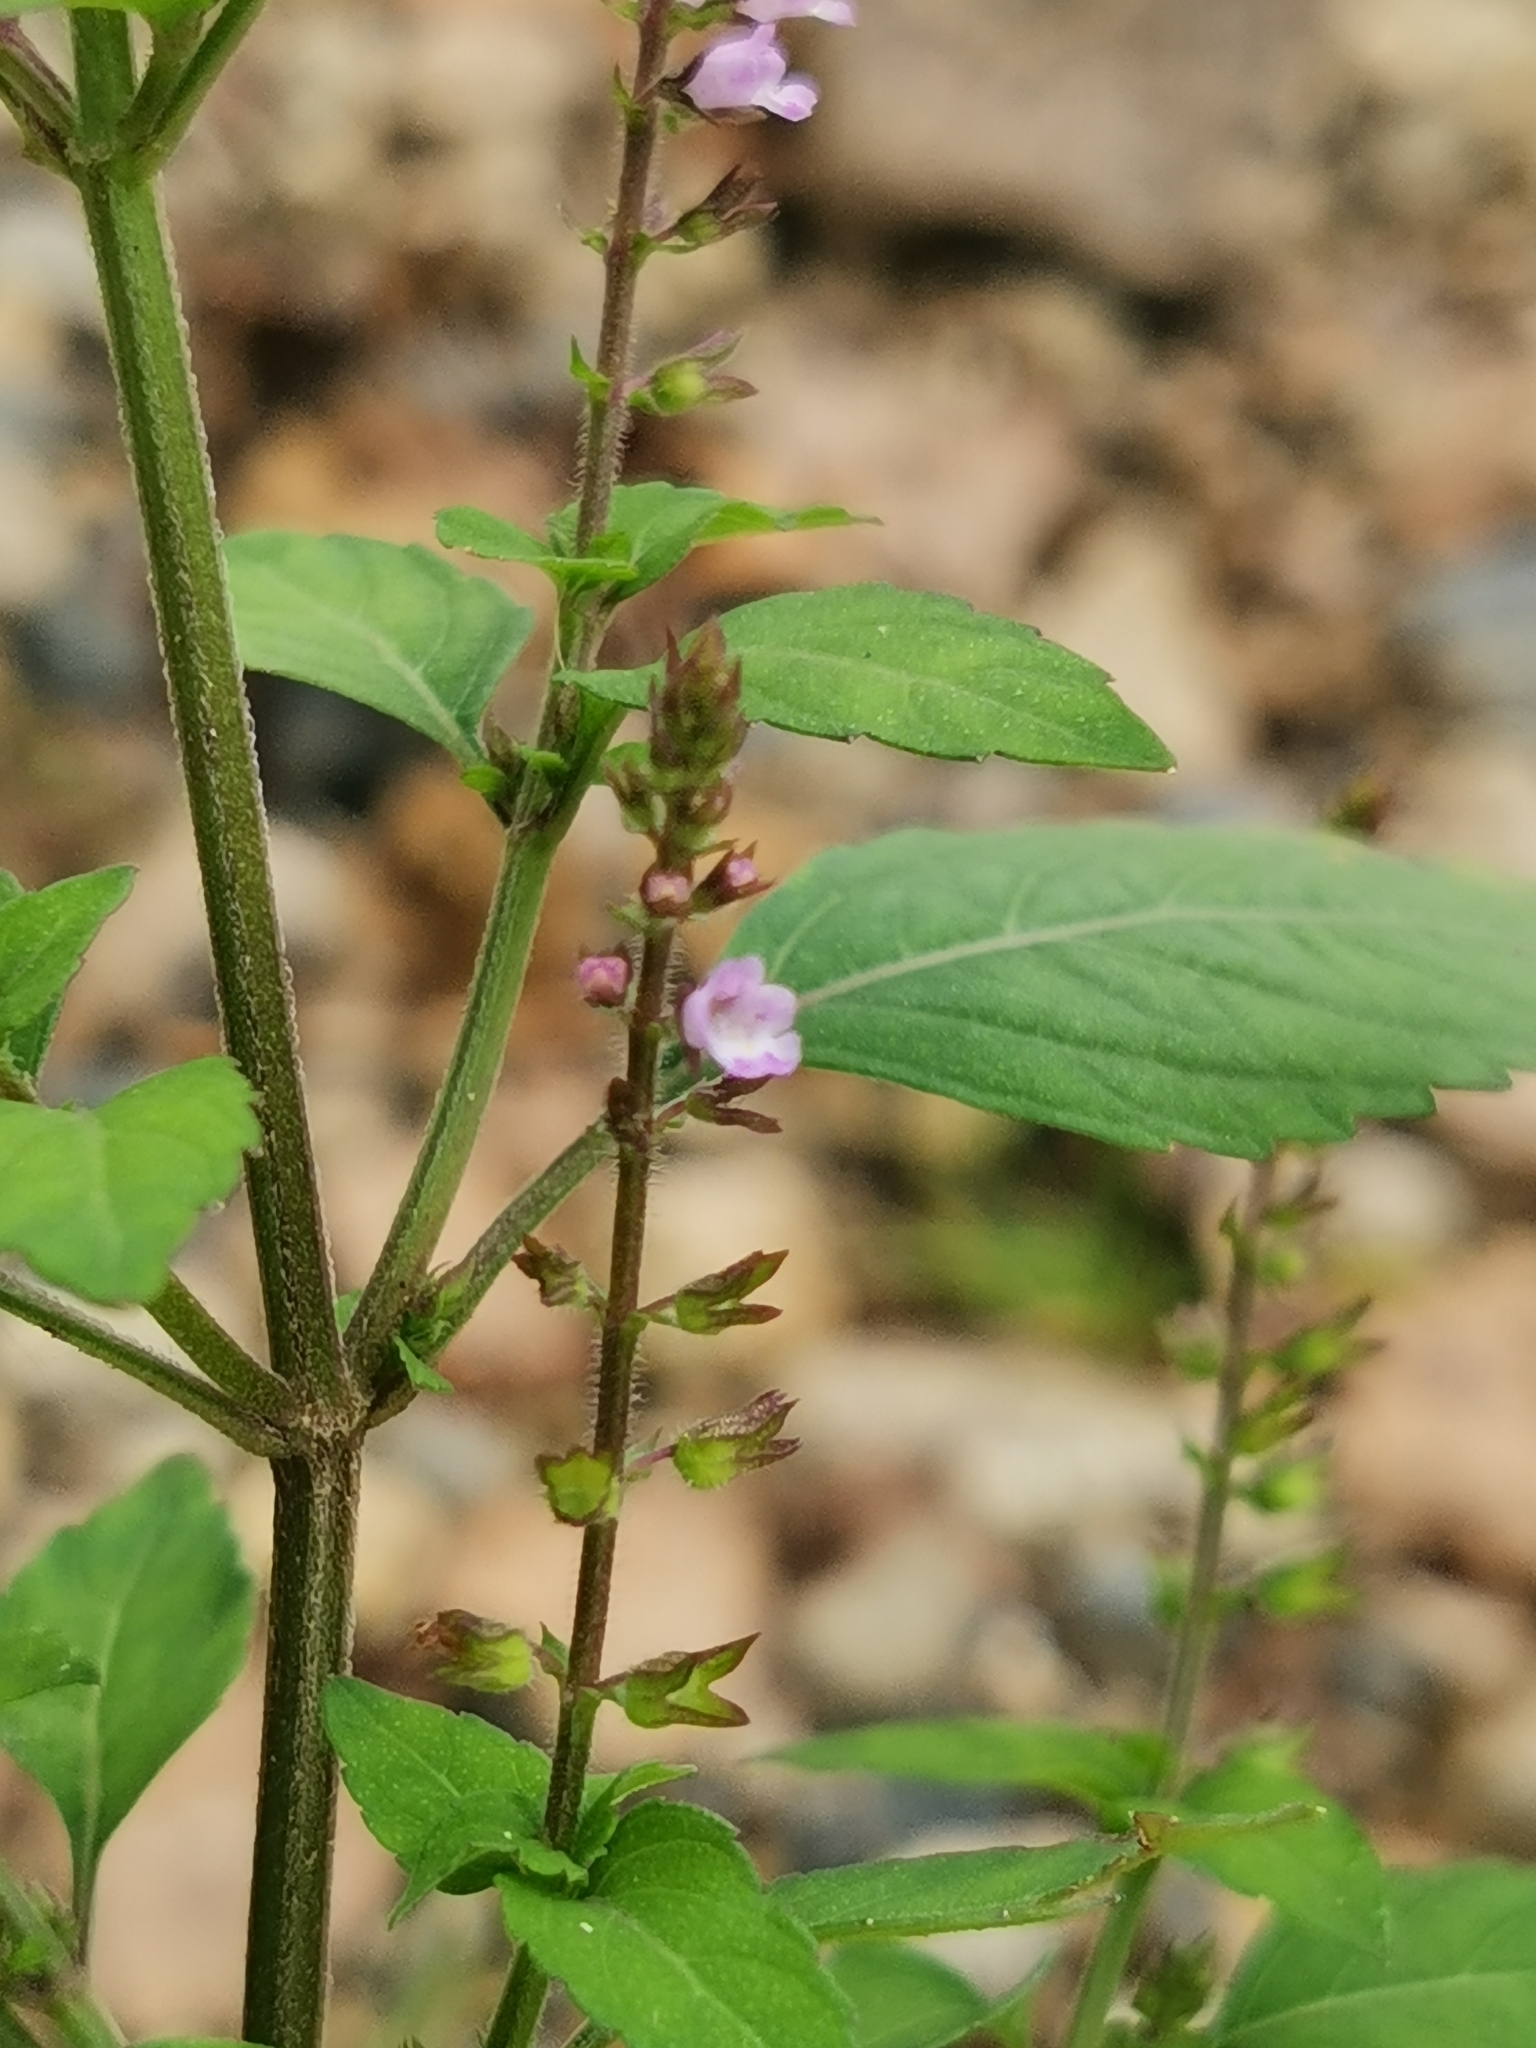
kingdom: Plantae
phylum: Tracheophyta
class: Magnoliopsida
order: Lamiales
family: Lamiaceae
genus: Mosla
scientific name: Mosla dianthera
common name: Miniature beefsteakplant
